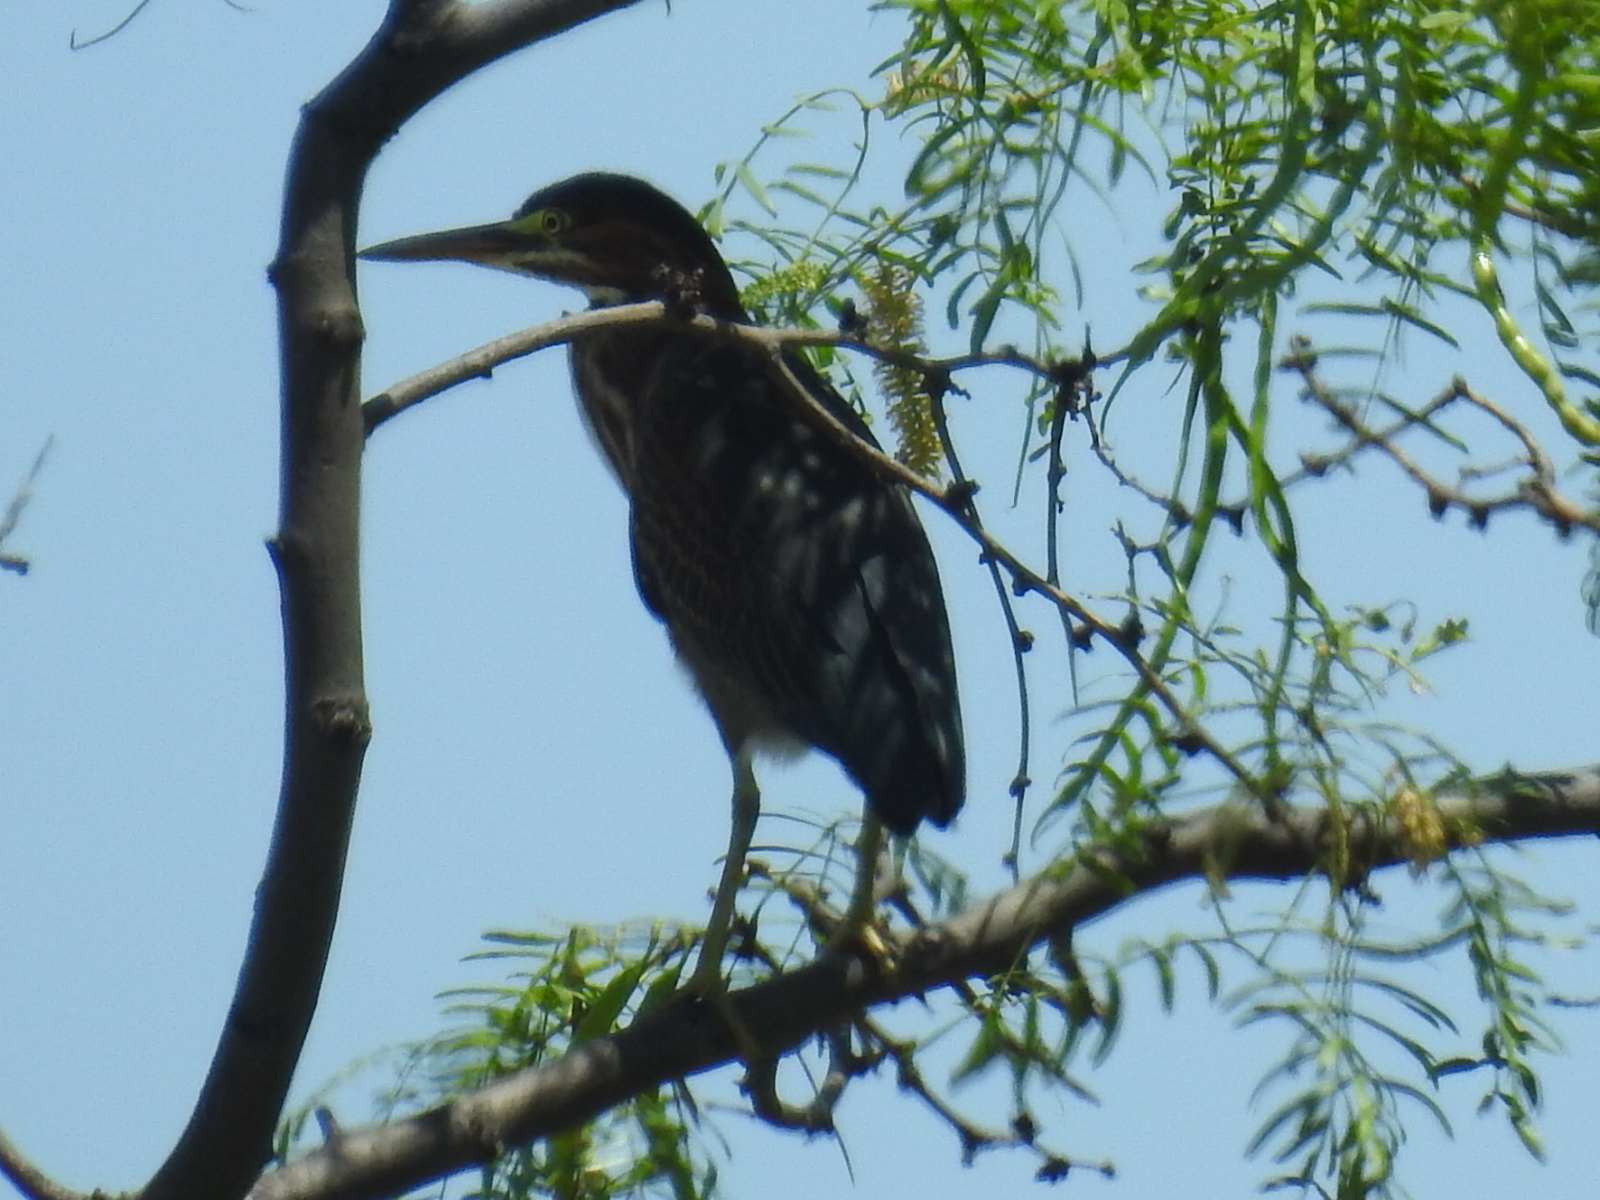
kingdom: Animalia
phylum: Chordata
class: Aves
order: Pelecaniformes
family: Ardeidae
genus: Butorides
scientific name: Butorides virescens
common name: Green heron
